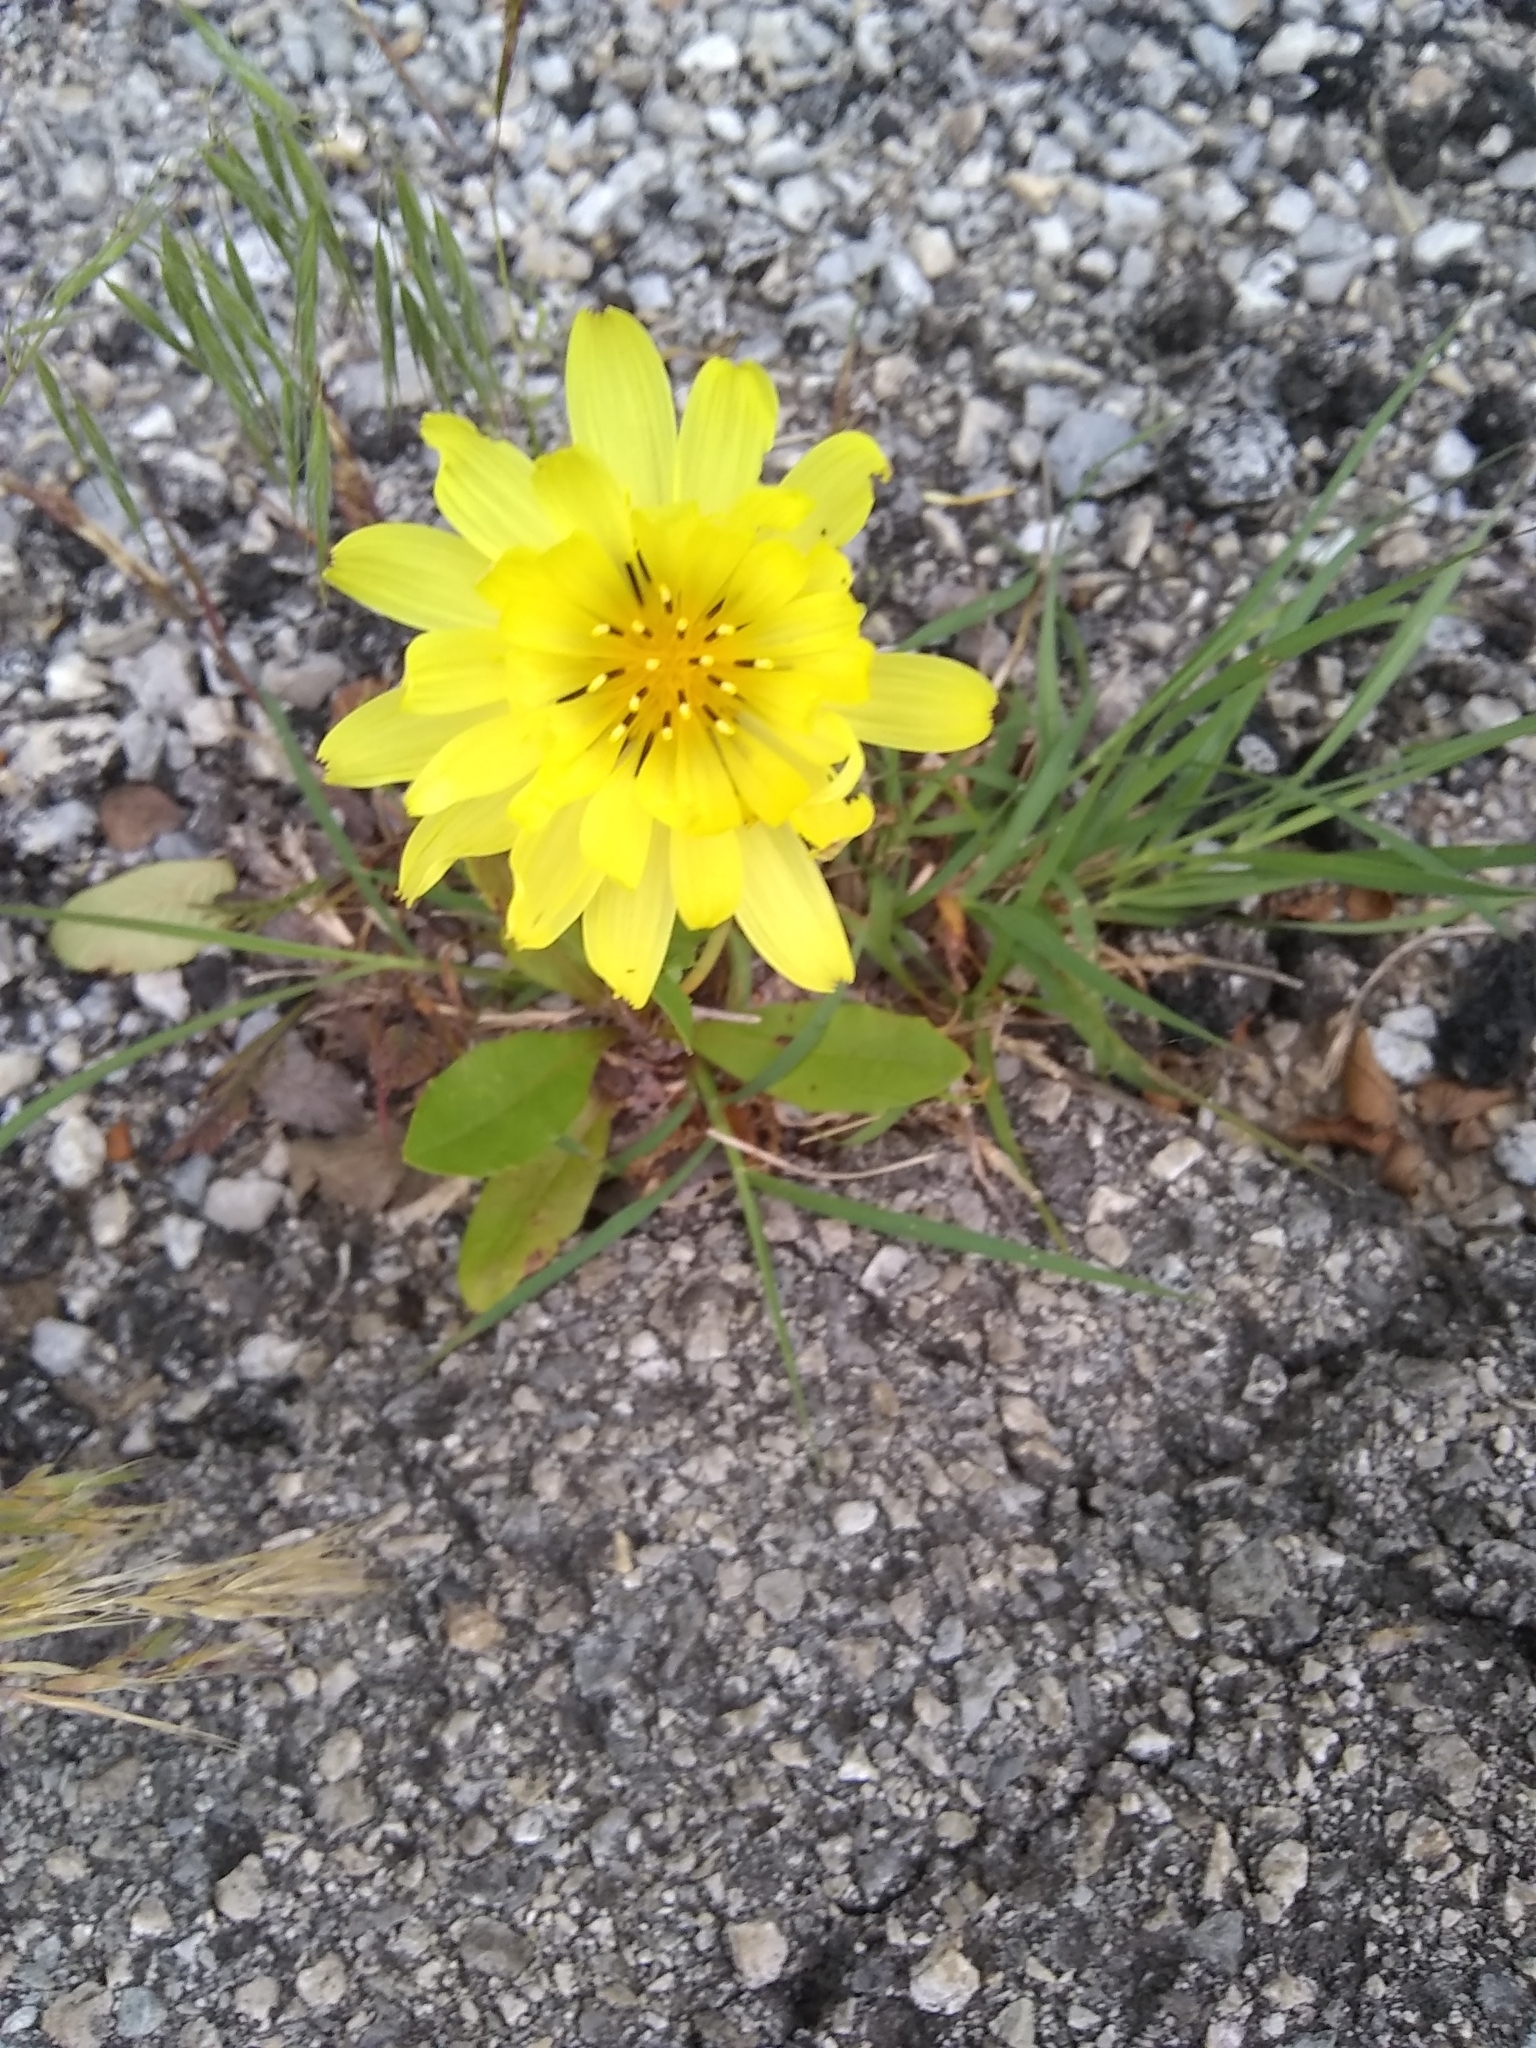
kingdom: Plantae
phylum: Tracheophyta
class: Magnoliopsida
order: Asterales
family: Asteraceae
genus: Pyrrhopappus
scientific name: Pyrrhopappus pauciflorus
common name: Texas false dandelion
